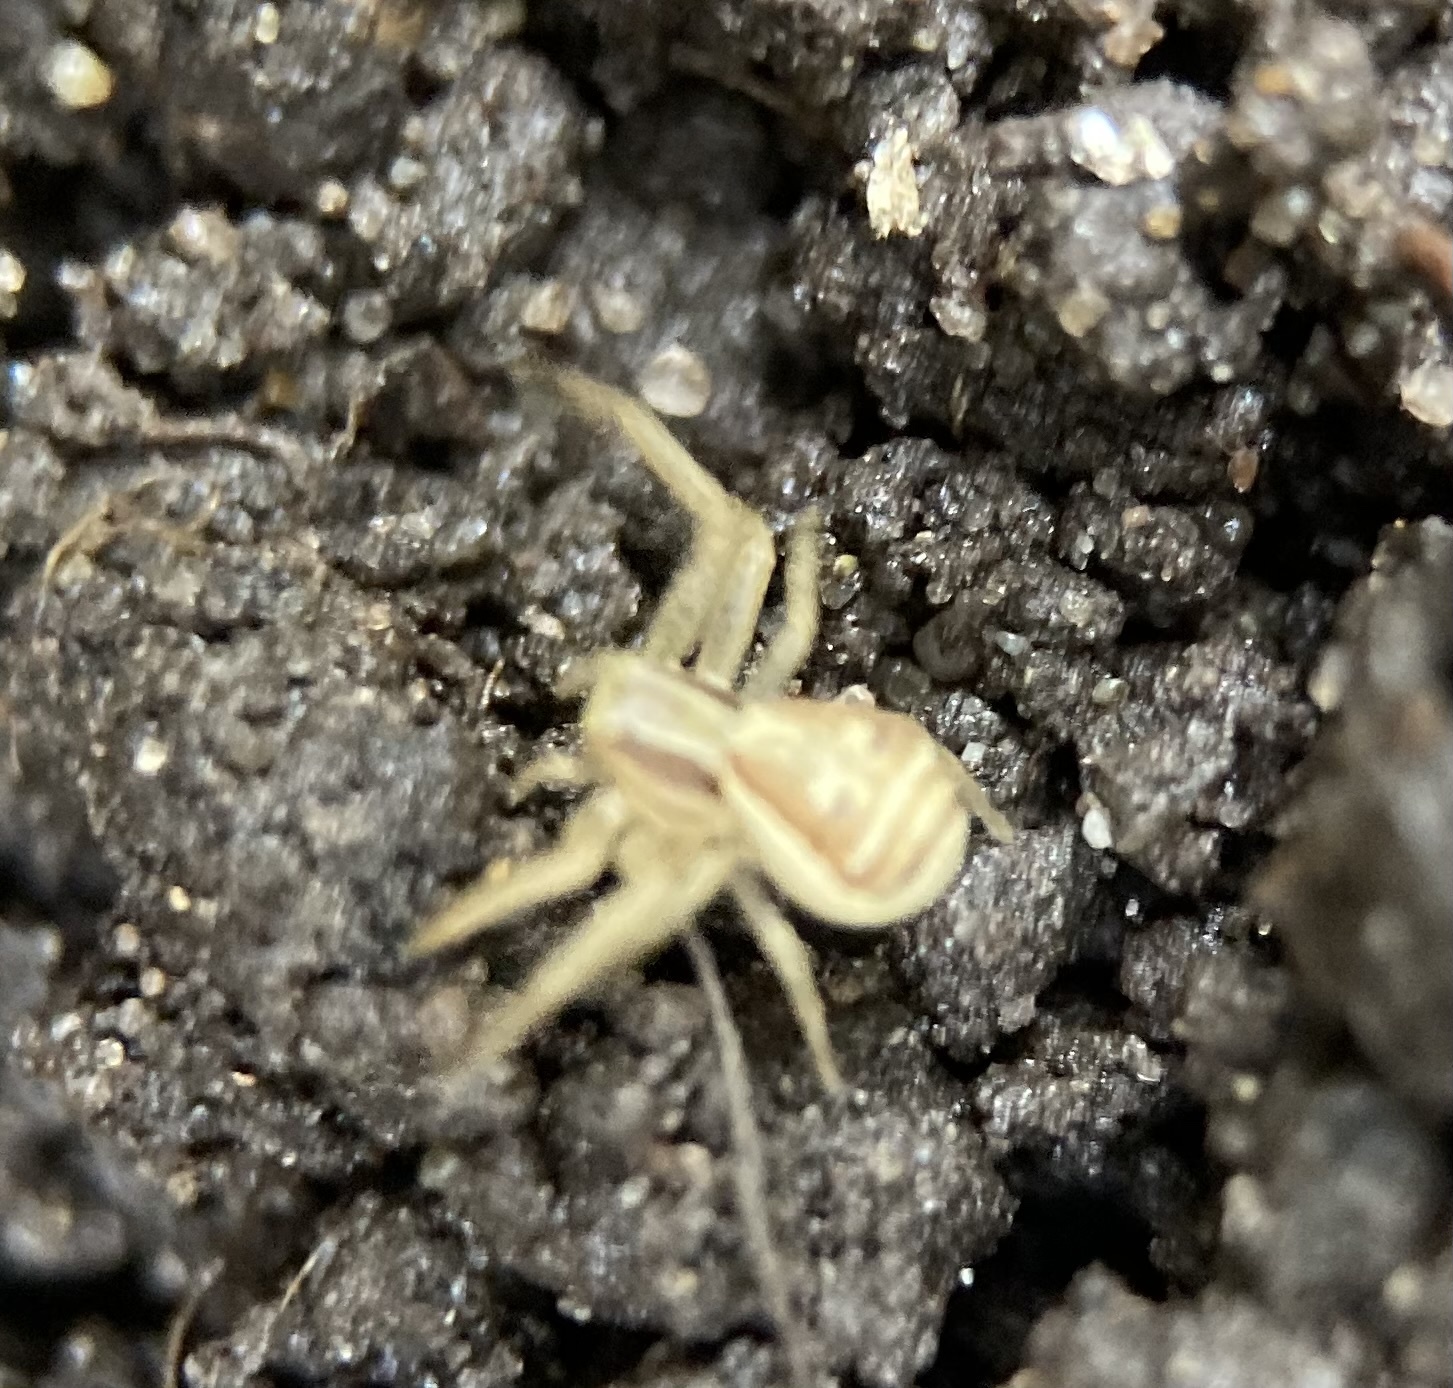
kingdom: Animalia
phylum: Arthropoda
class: Arachnida
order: Araneae
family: Thomisidae
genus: Xysticus
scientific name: Xysticus ulmi
